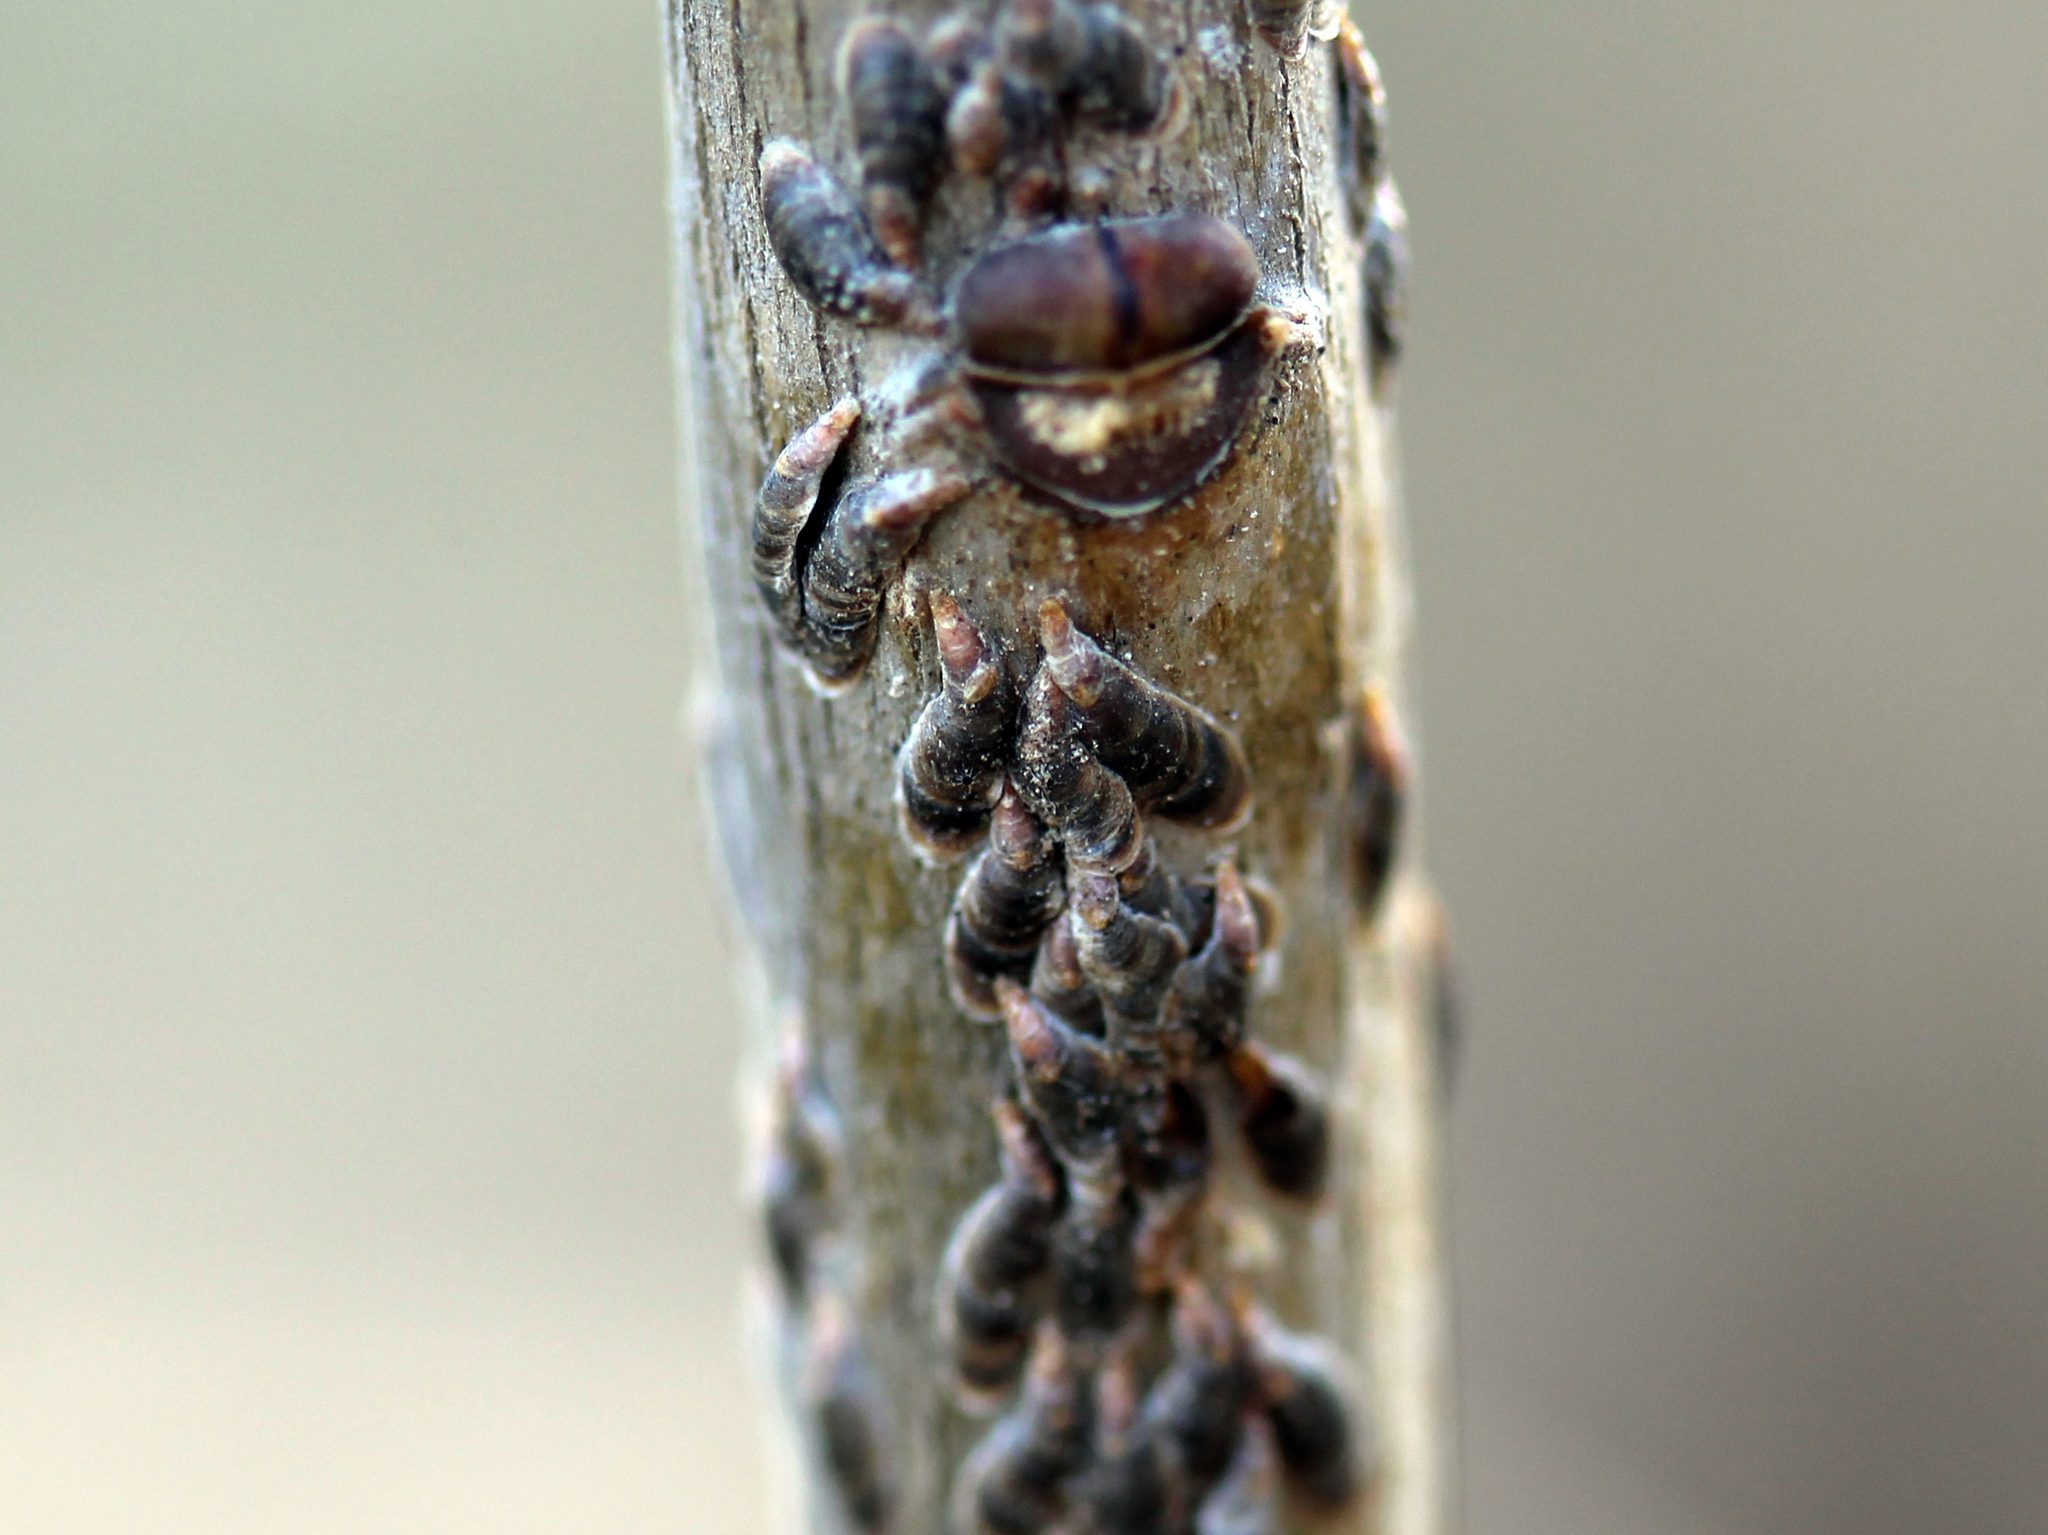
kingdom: Animalia
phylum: Arthropoda
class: Insecta
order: Hemiptera
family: Diaspididae
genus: Lepidosaphes
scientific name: Lepidosaphes ulmi
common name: Oystershell scale
